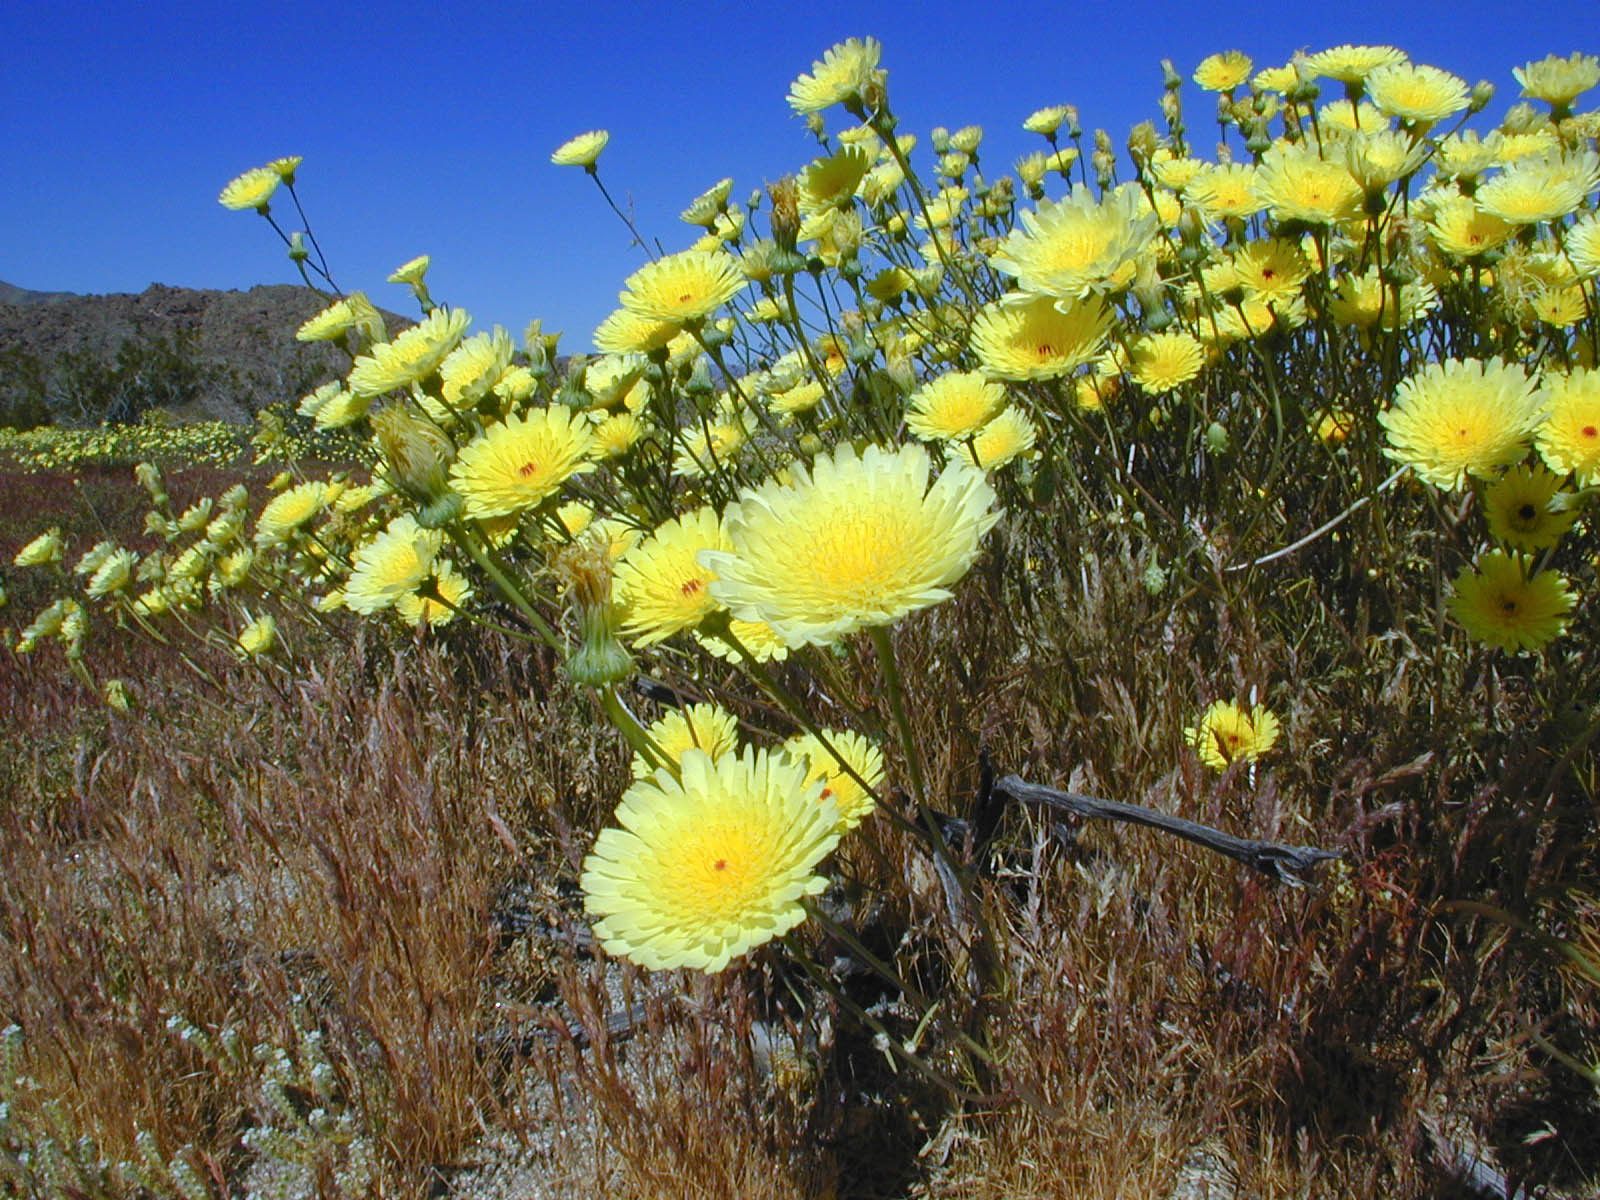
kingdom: Plantae
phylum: Tracheophyta
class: Magnoliopsida
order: Asterales
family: Asteraceae
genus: Malacothrix
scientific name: Malacothrix glabrata
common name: Smooth desert-dandelion
